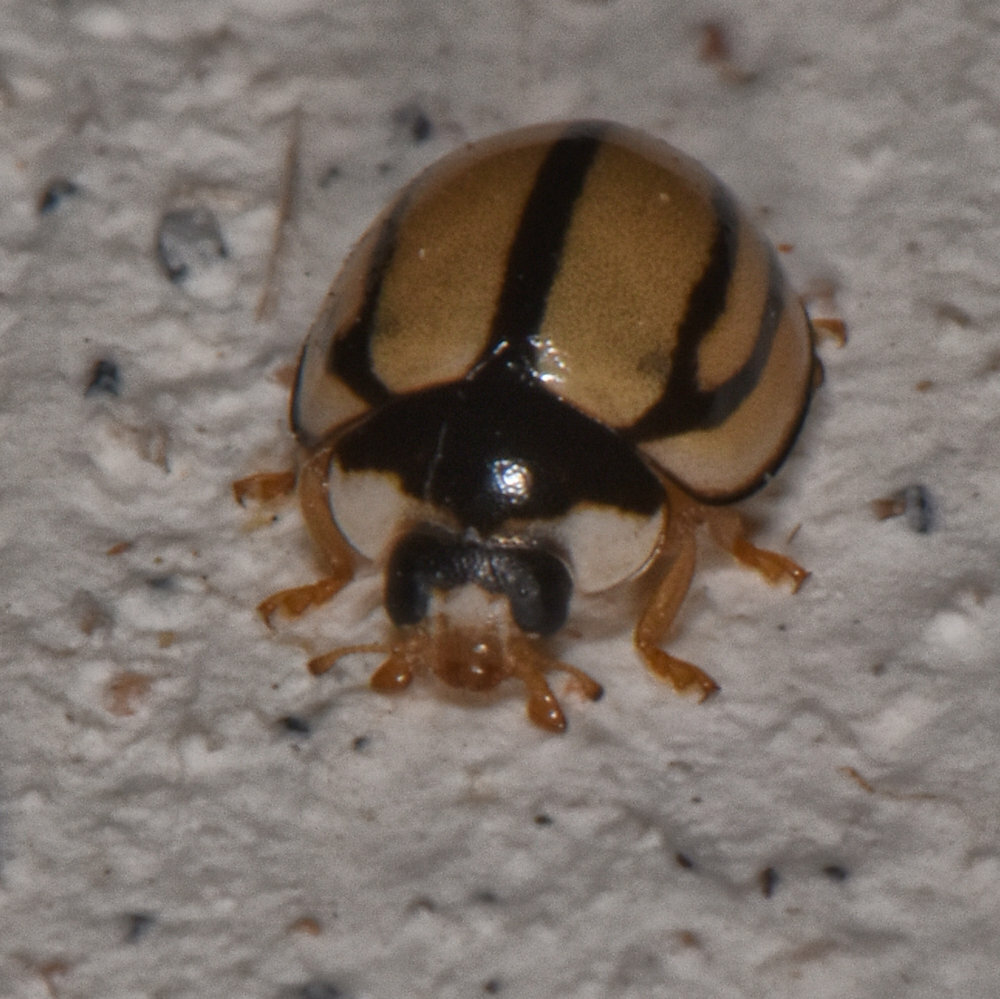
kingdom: Animalia
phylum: Arthropoda
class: Insecta
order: Coleoptera
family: Coccinellidae
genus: Cheilomenes
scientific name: Cheilomenes propinqua
